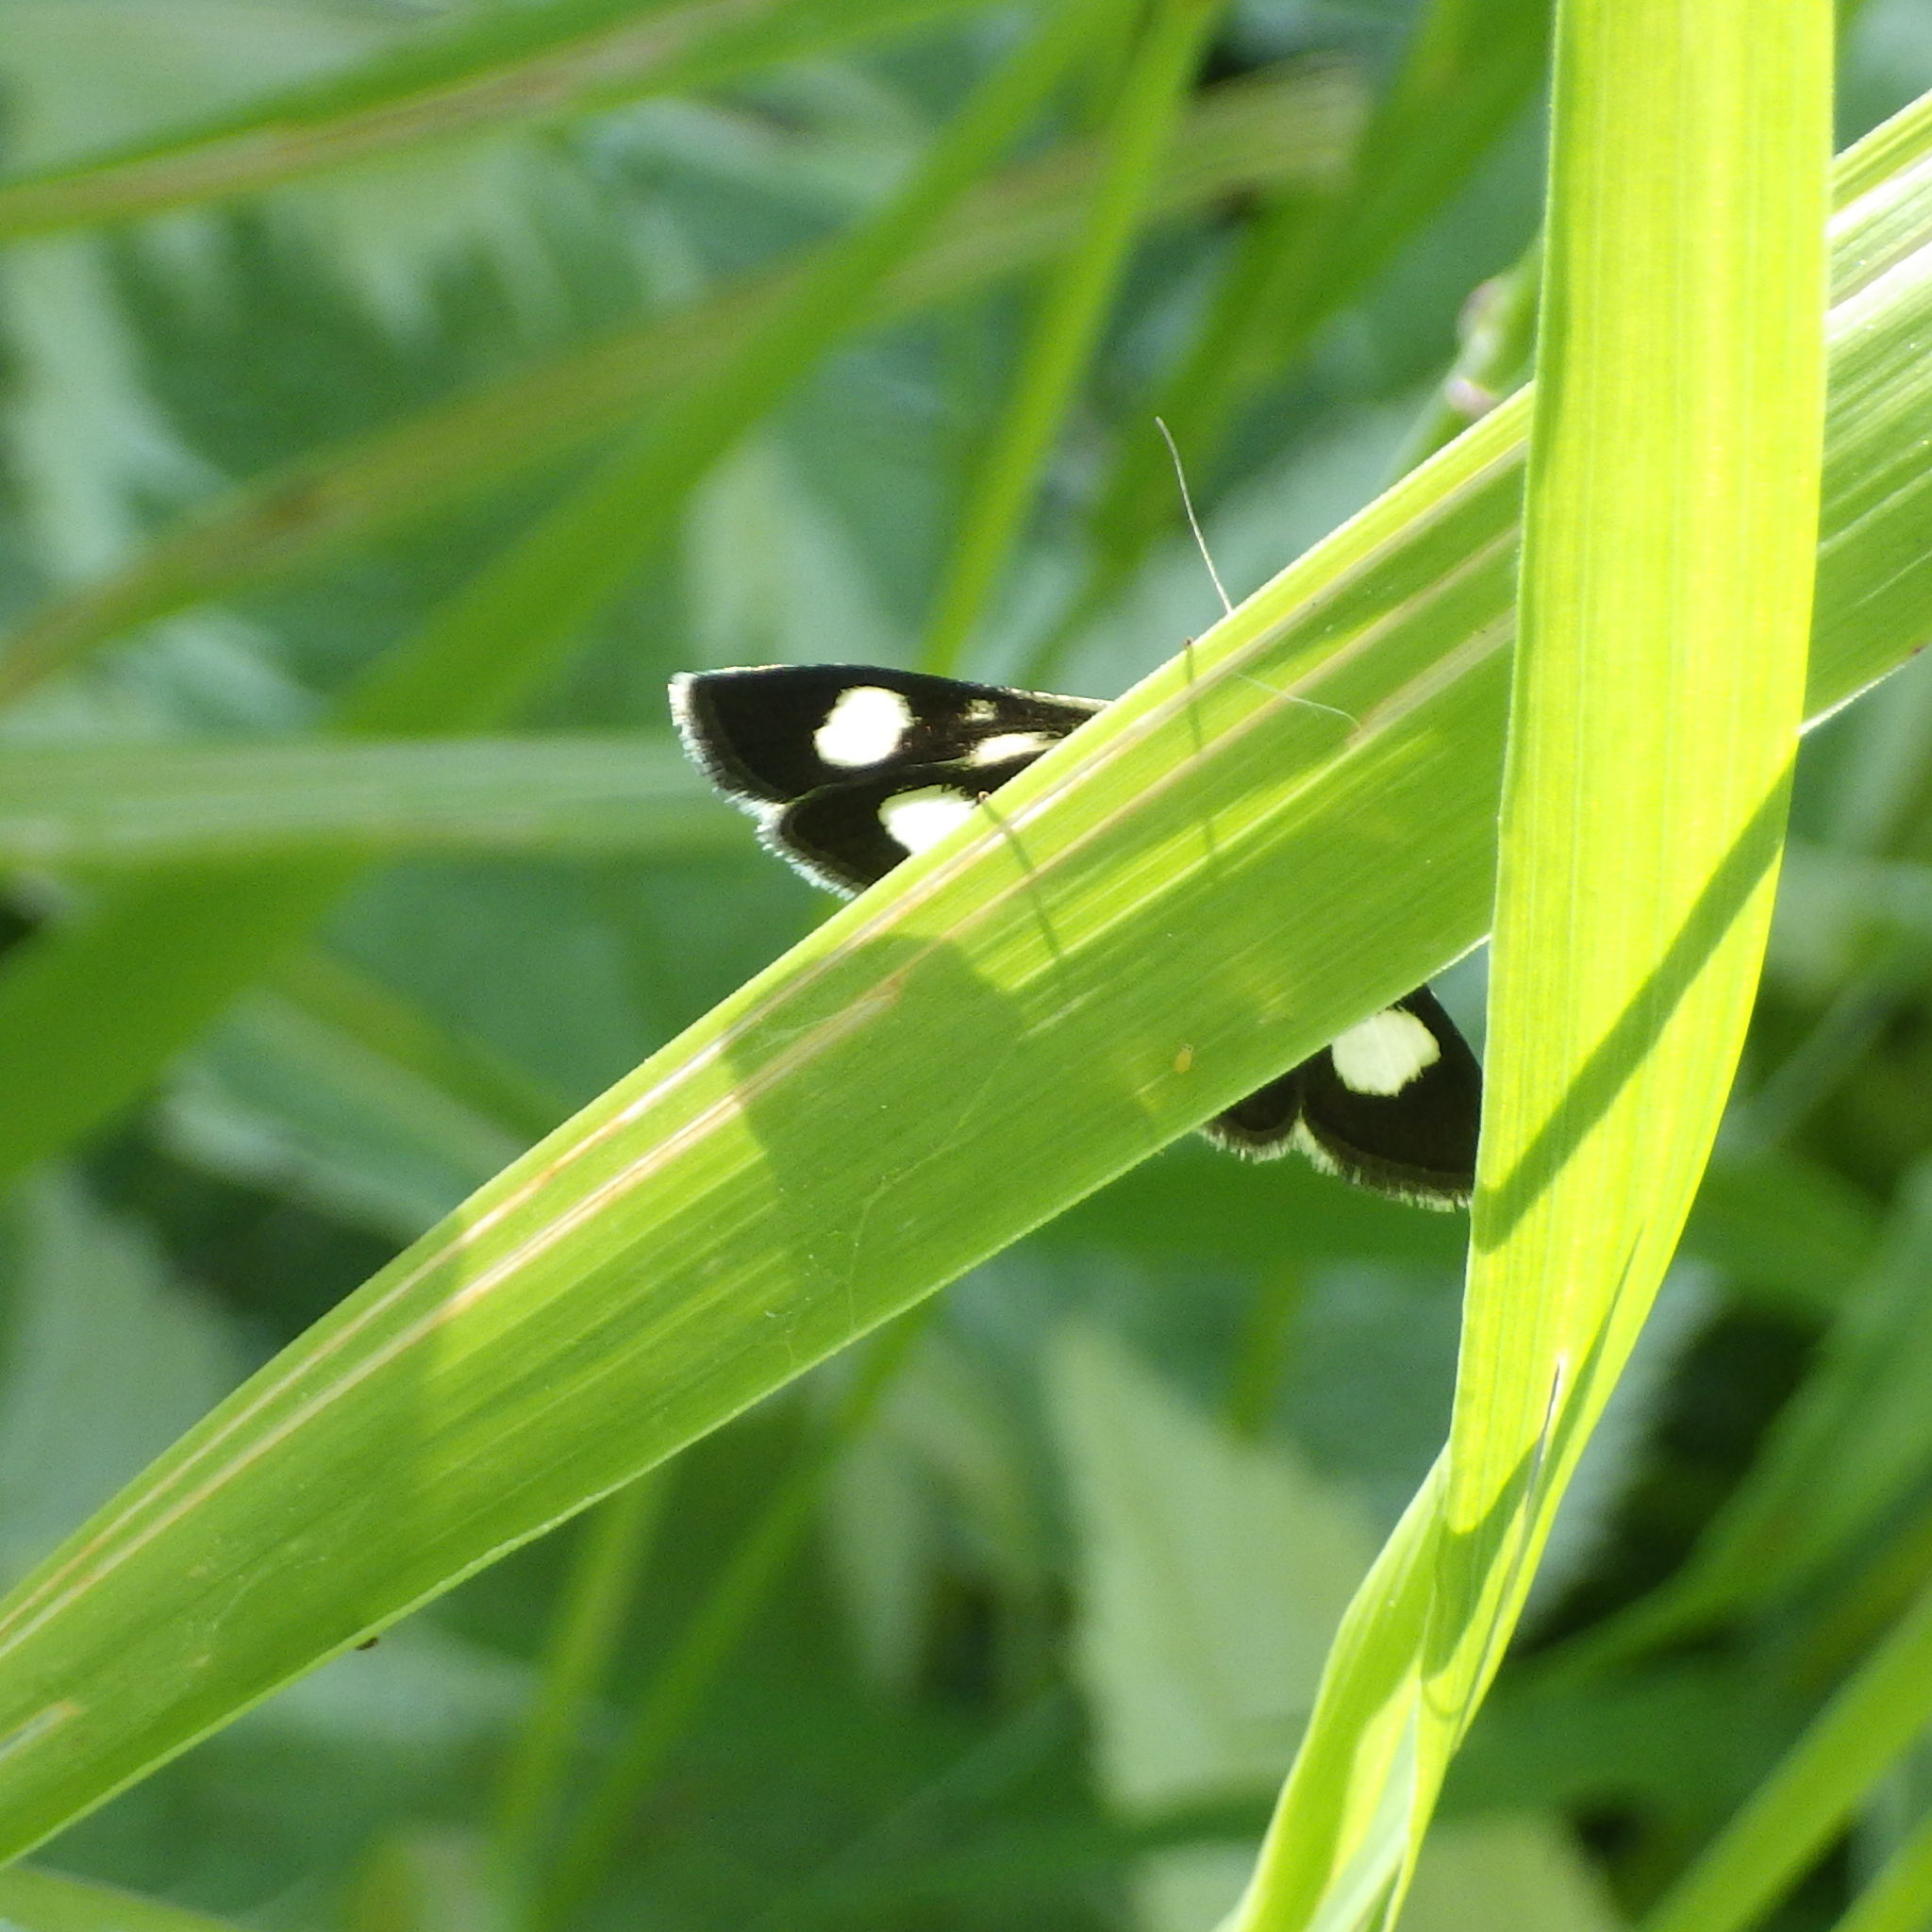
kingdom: Animalia
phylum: Arthropoda
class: Insecta
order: Lepidoptera
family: Crambidae
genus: Anania
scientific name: Anania funebris
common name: White-spotted sable moth
